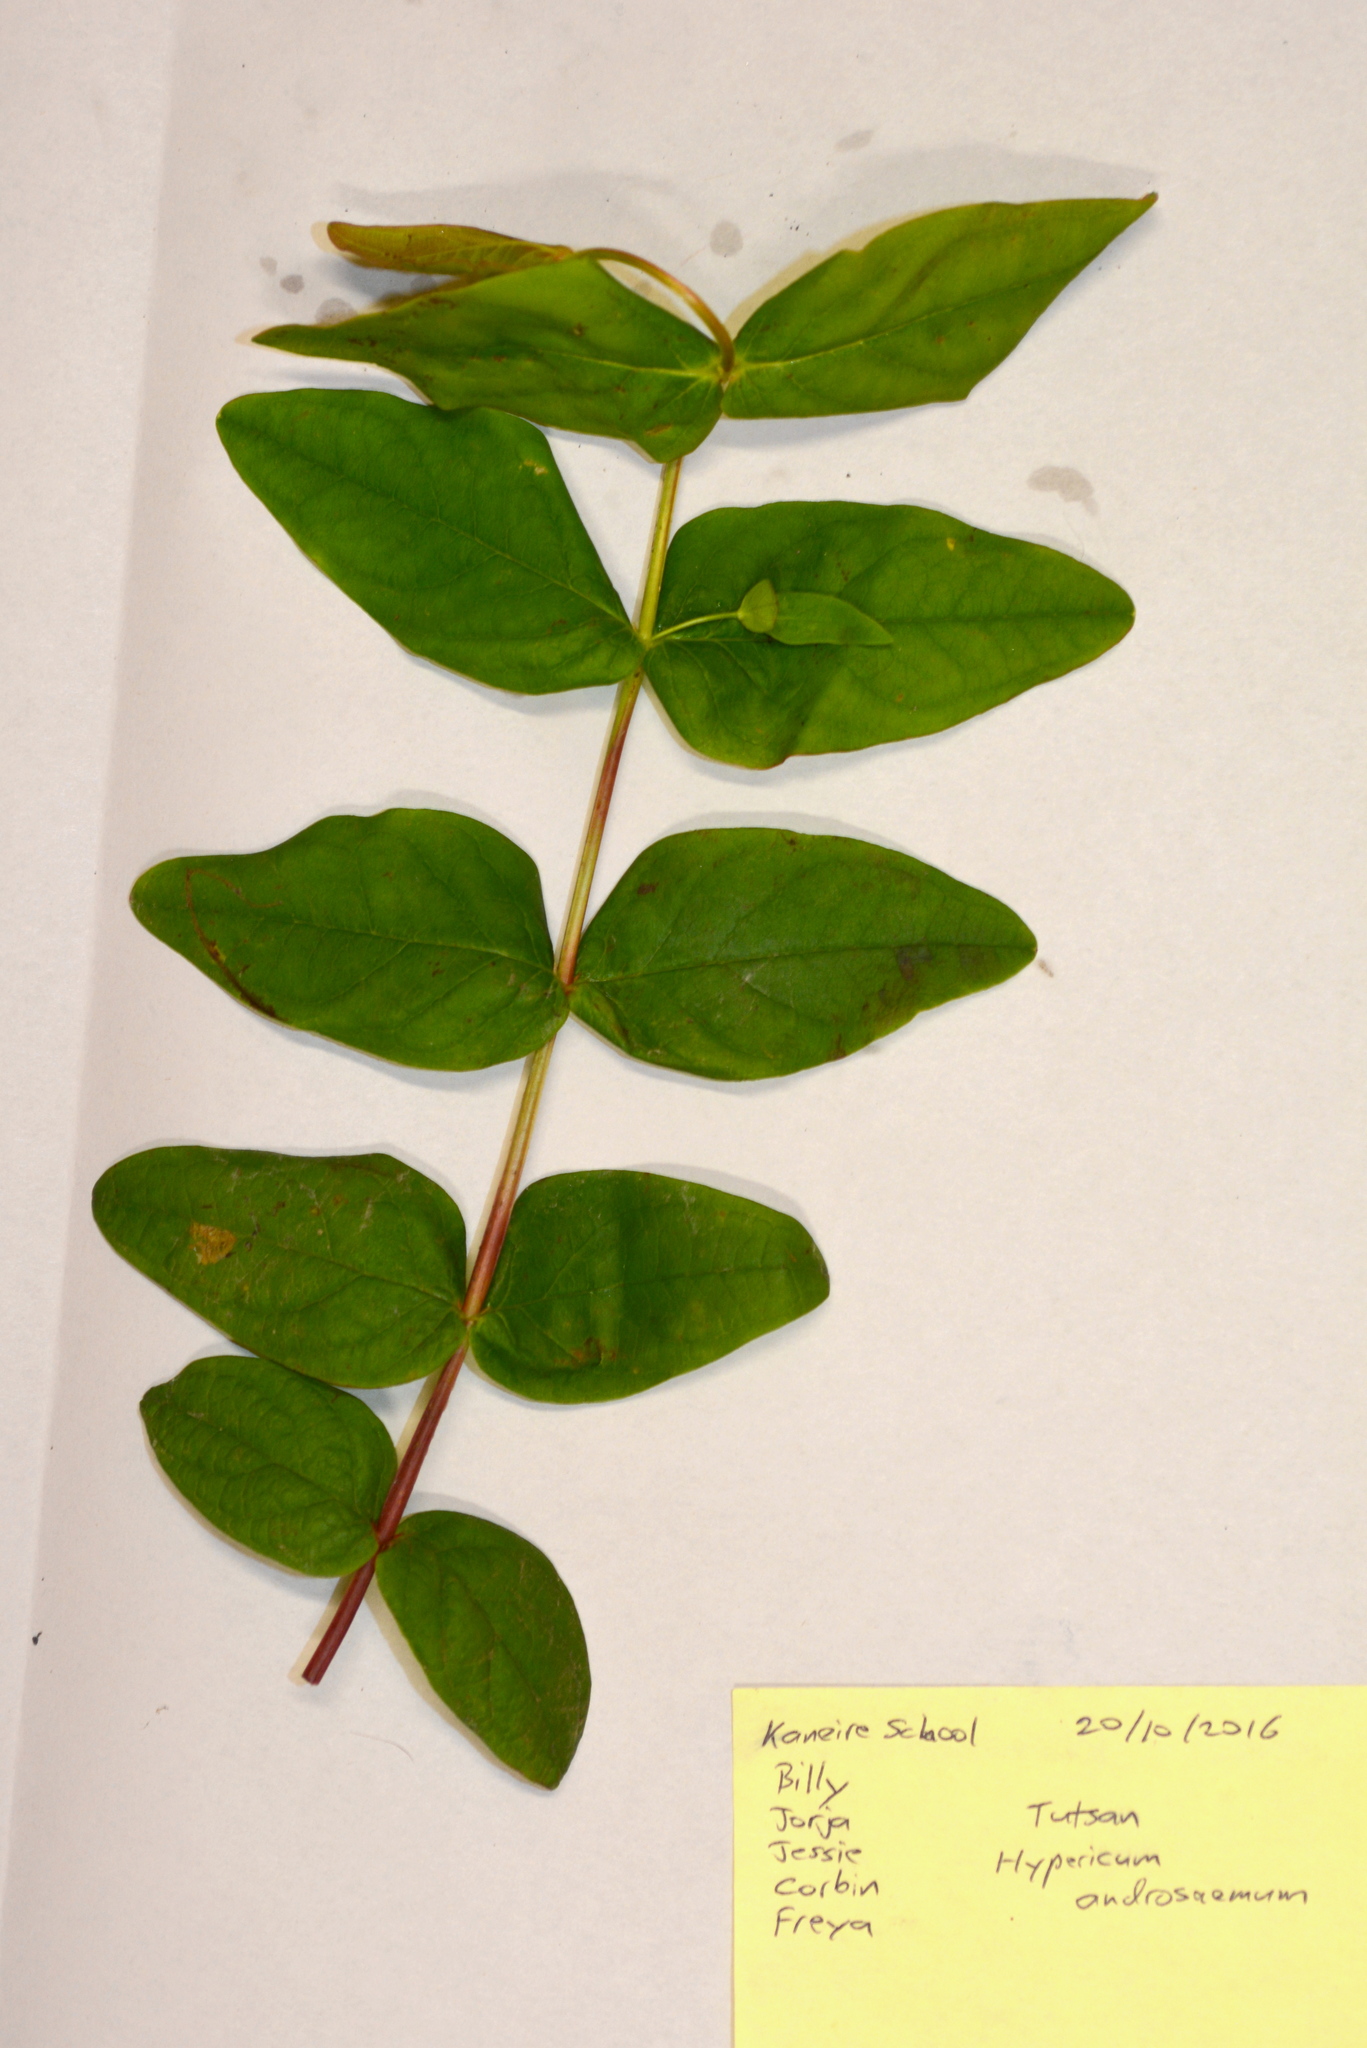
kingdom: Plantae
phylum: Tracheophyta
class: Magnoliopsida
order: Malpighiales
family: Hypericaceae
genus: Hypericum
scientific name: Hypericum androsaemum
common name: Sweet-amber
